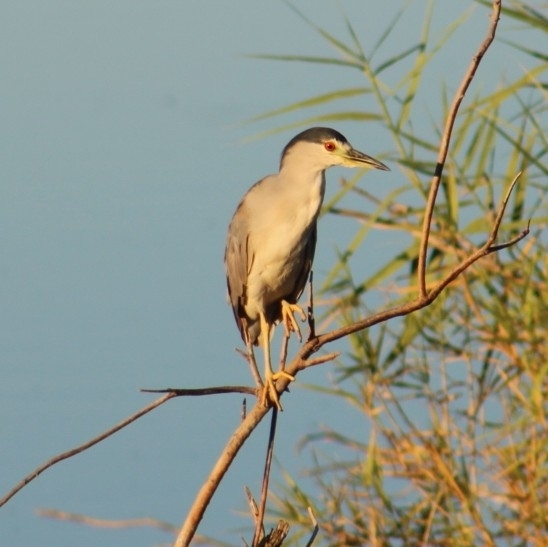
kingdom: Animalia
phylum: Chordata
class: Aves
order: Pelecaniformes
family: Ardeidae
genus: Nycticorax
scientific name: Nycticorax nycticorax
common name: Black-crowned night heron
